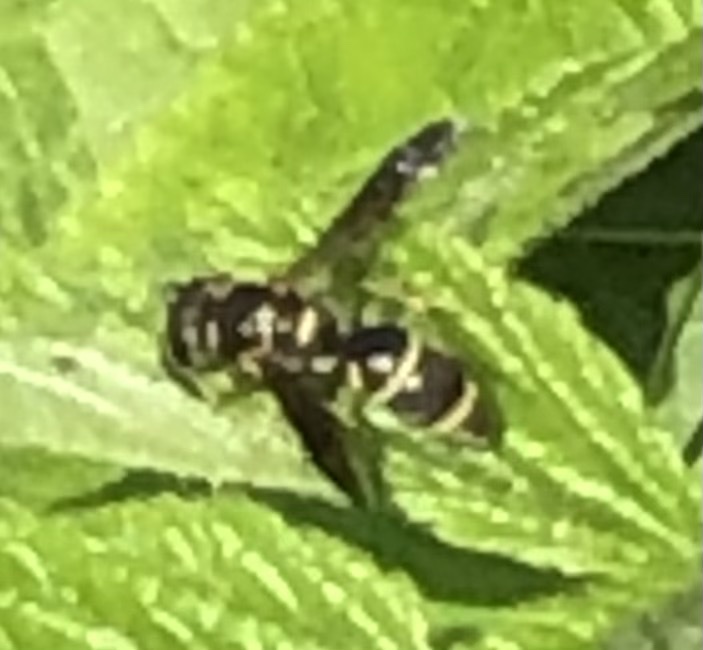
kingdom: Animalia
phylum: Arthropoda
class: Insecta
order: Hymenoptera
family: Eumenidae
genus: Parancistrocerus
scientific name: Parancistrocerus fulvipes
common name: Potter wasp
